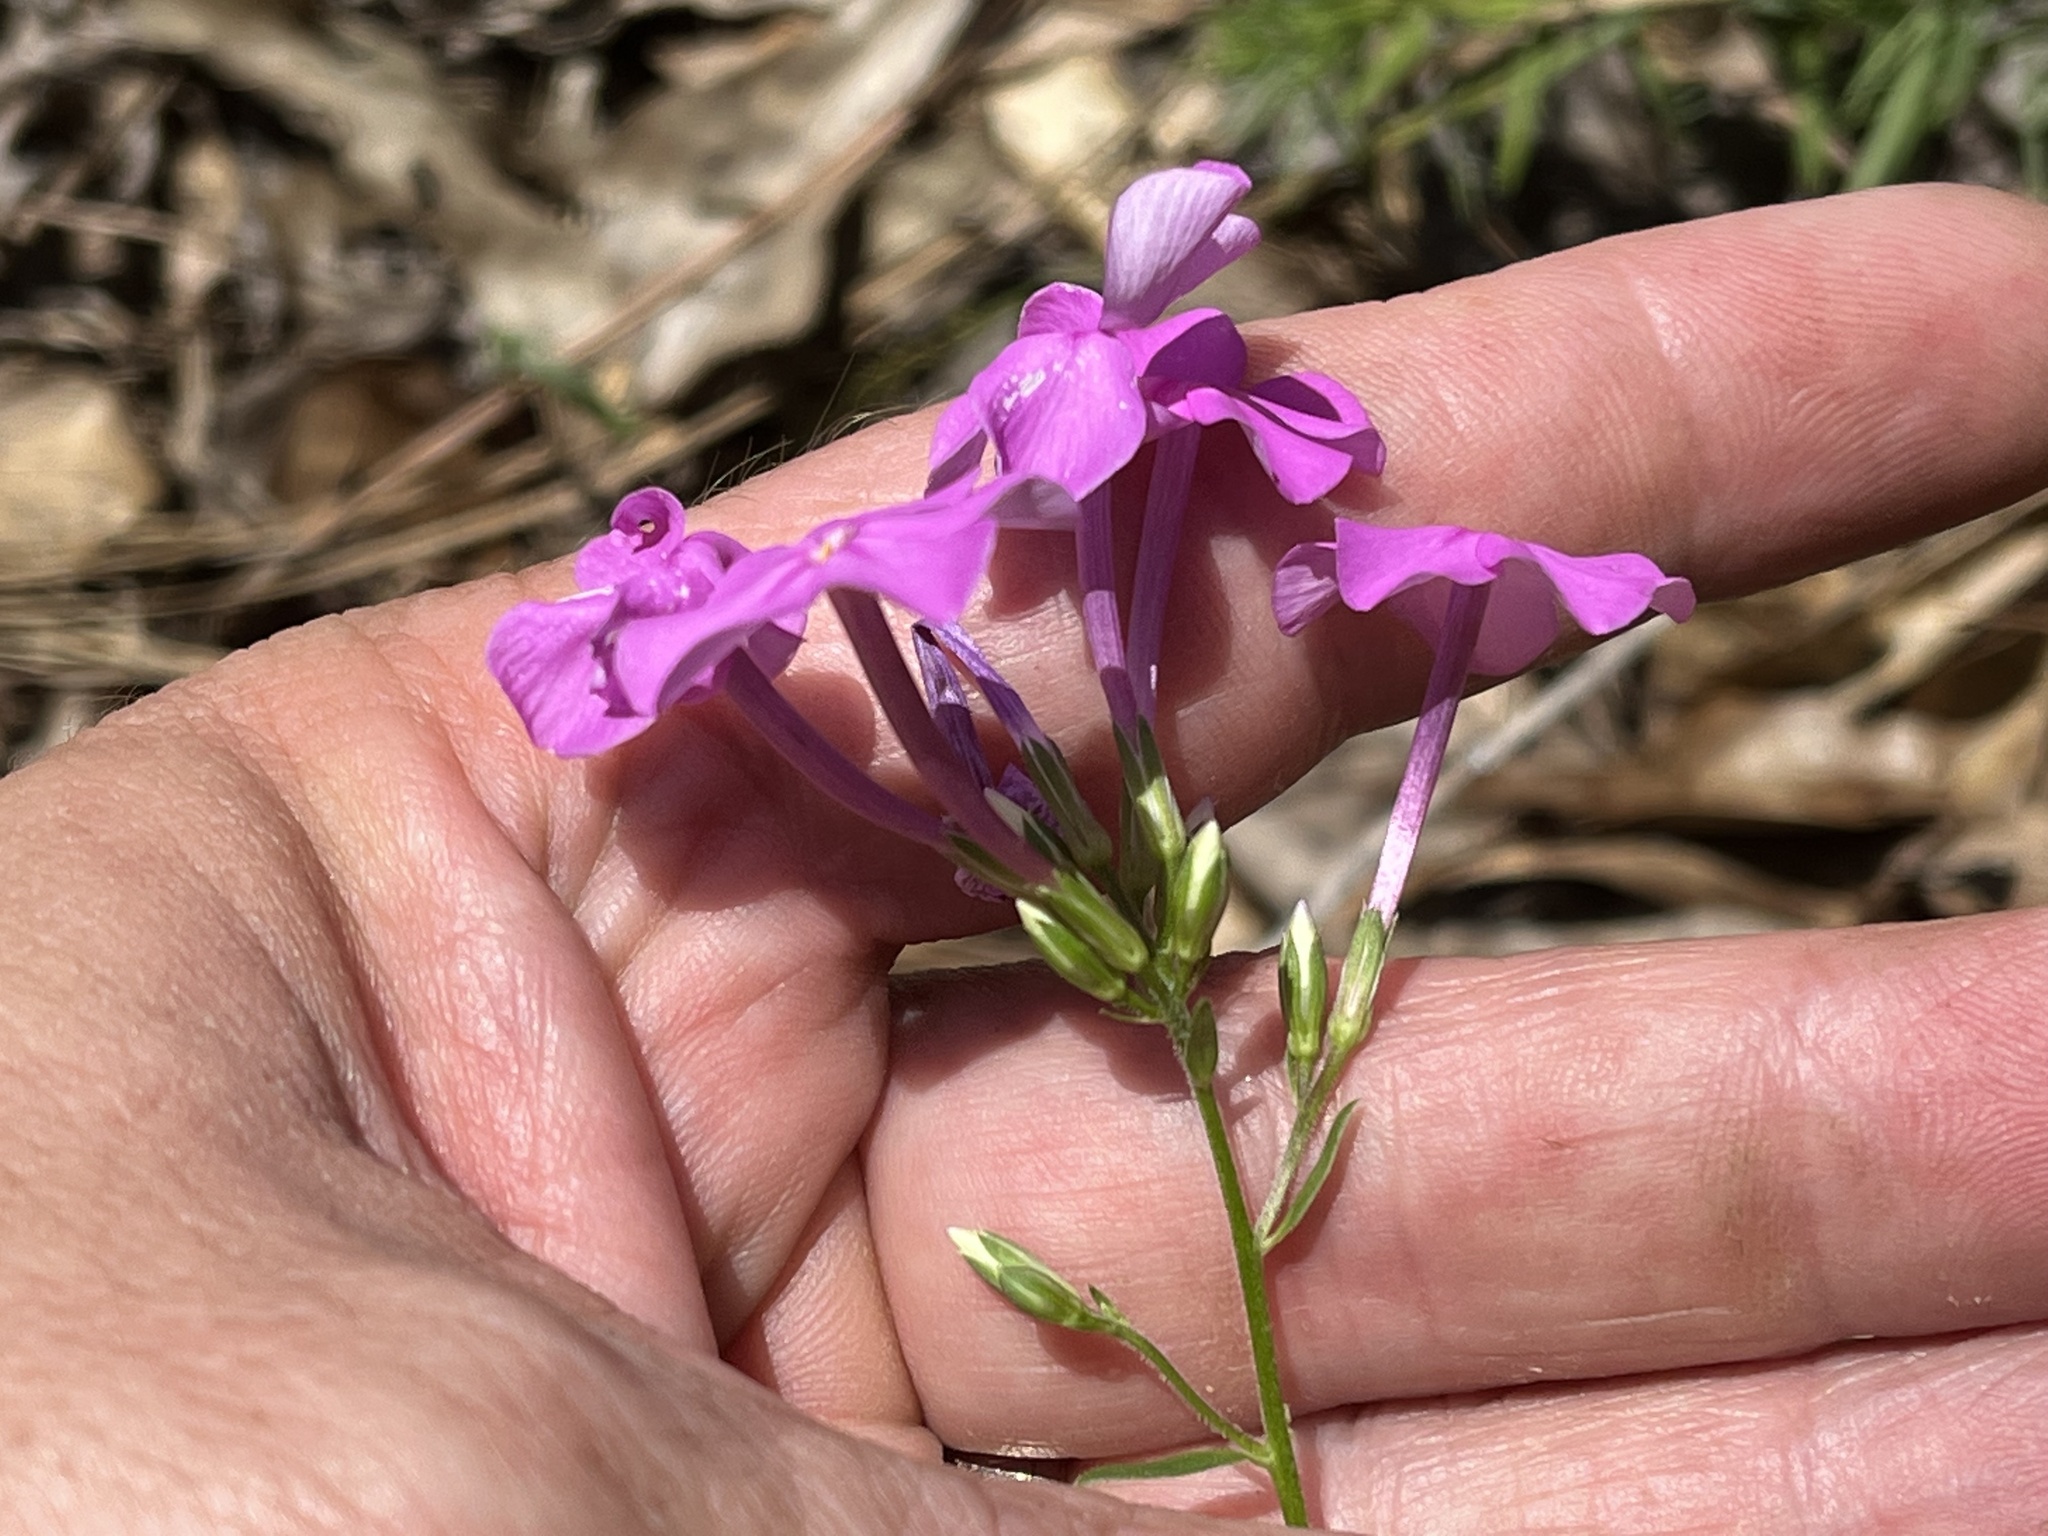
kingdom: Plantae
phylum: Tracheophyta
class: Magnoliopsida
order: Ericales
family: Polemoniaceae
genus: Phlox
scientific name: Phlox carolina
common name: Thick-leaf phlox
